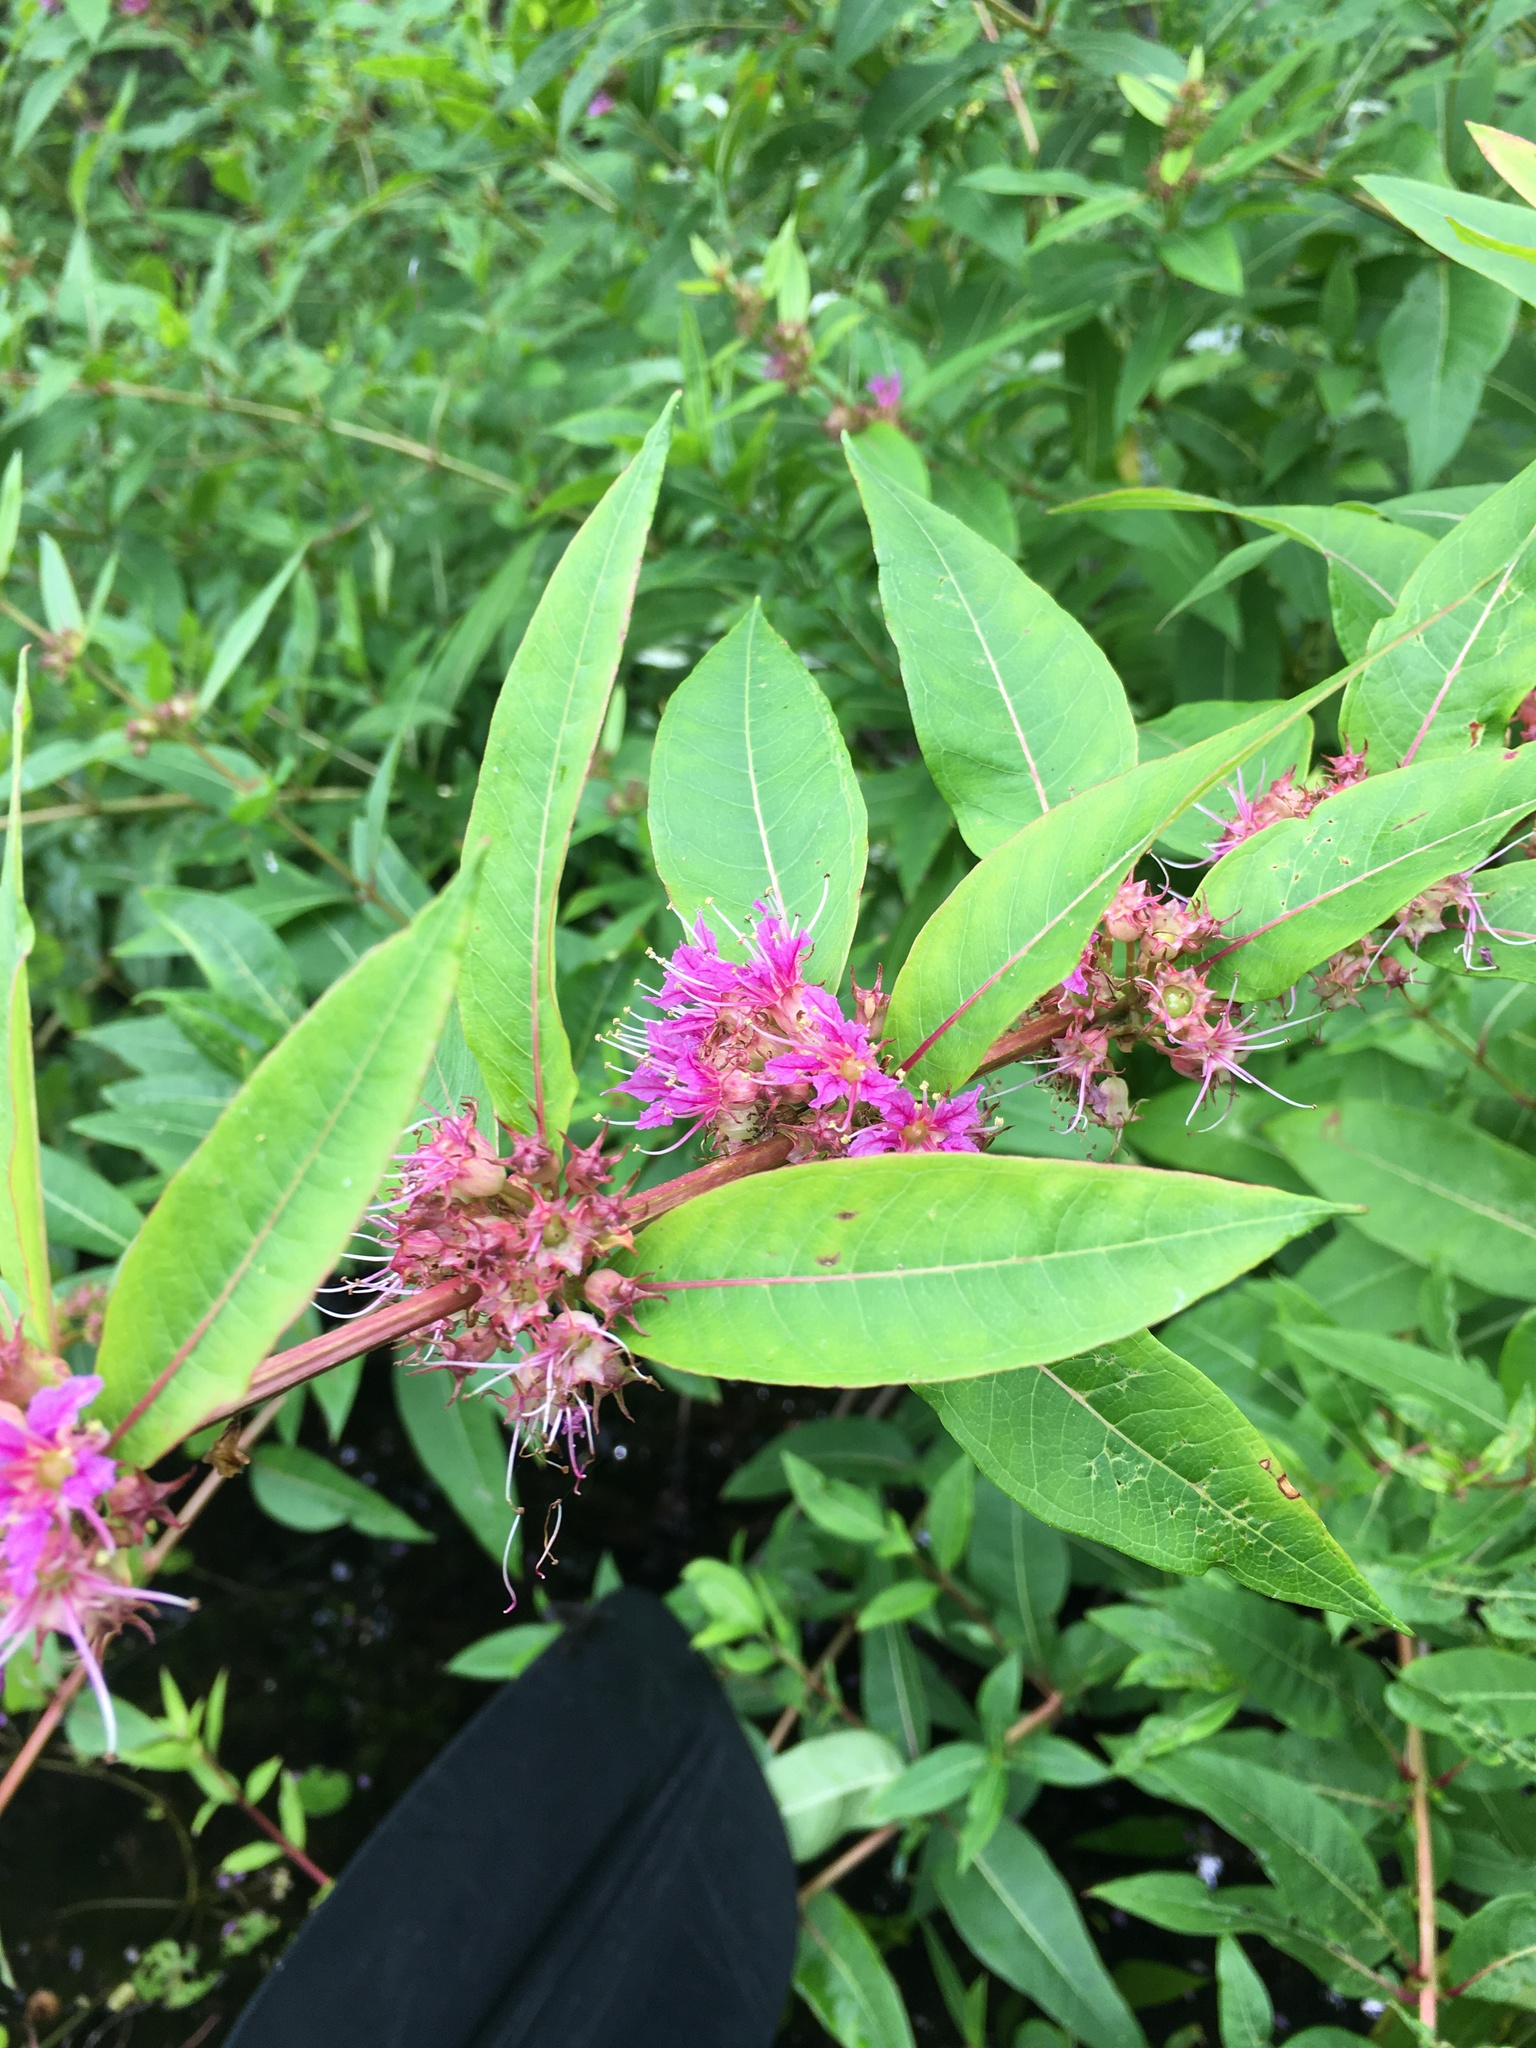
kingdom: Plantae
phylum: Tracheophyta
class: Magnoliopsida
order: Myrtales
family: Lythraceae
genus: Decodon
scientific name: Decodon verticillatus
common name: Hairy swamp loosestrife
